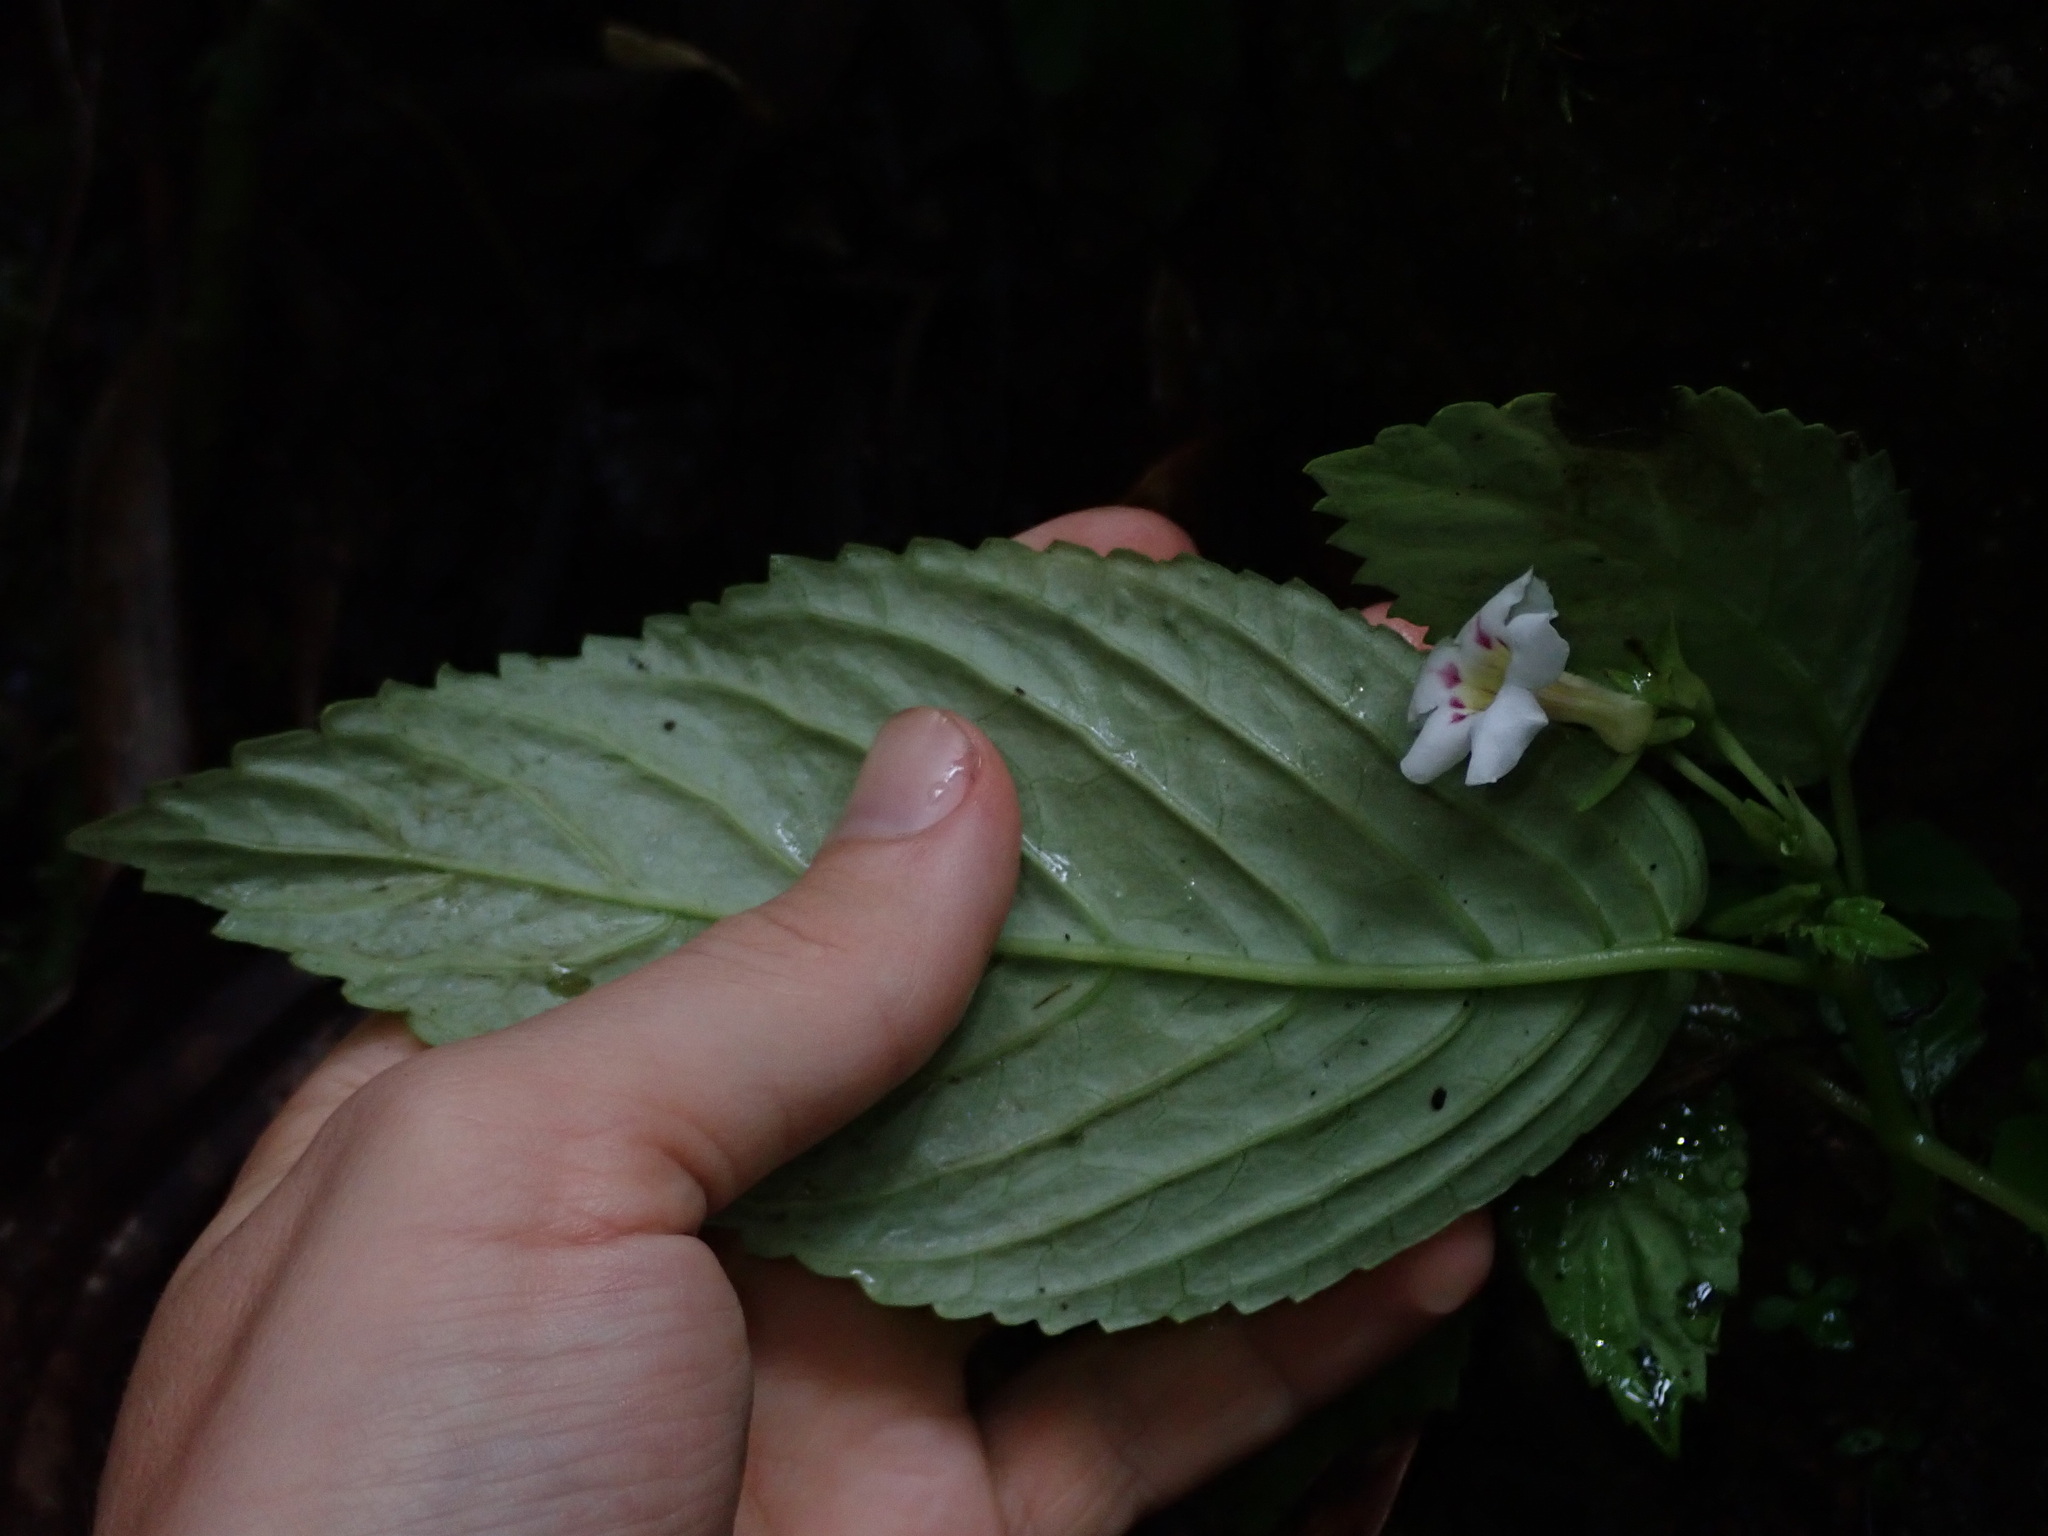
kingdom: Plantae
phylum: Tracheophyta
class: Magnoliopsida
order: Lamiales
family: Gesneriaceae
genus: Diastema
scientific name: Diastema scabrum
